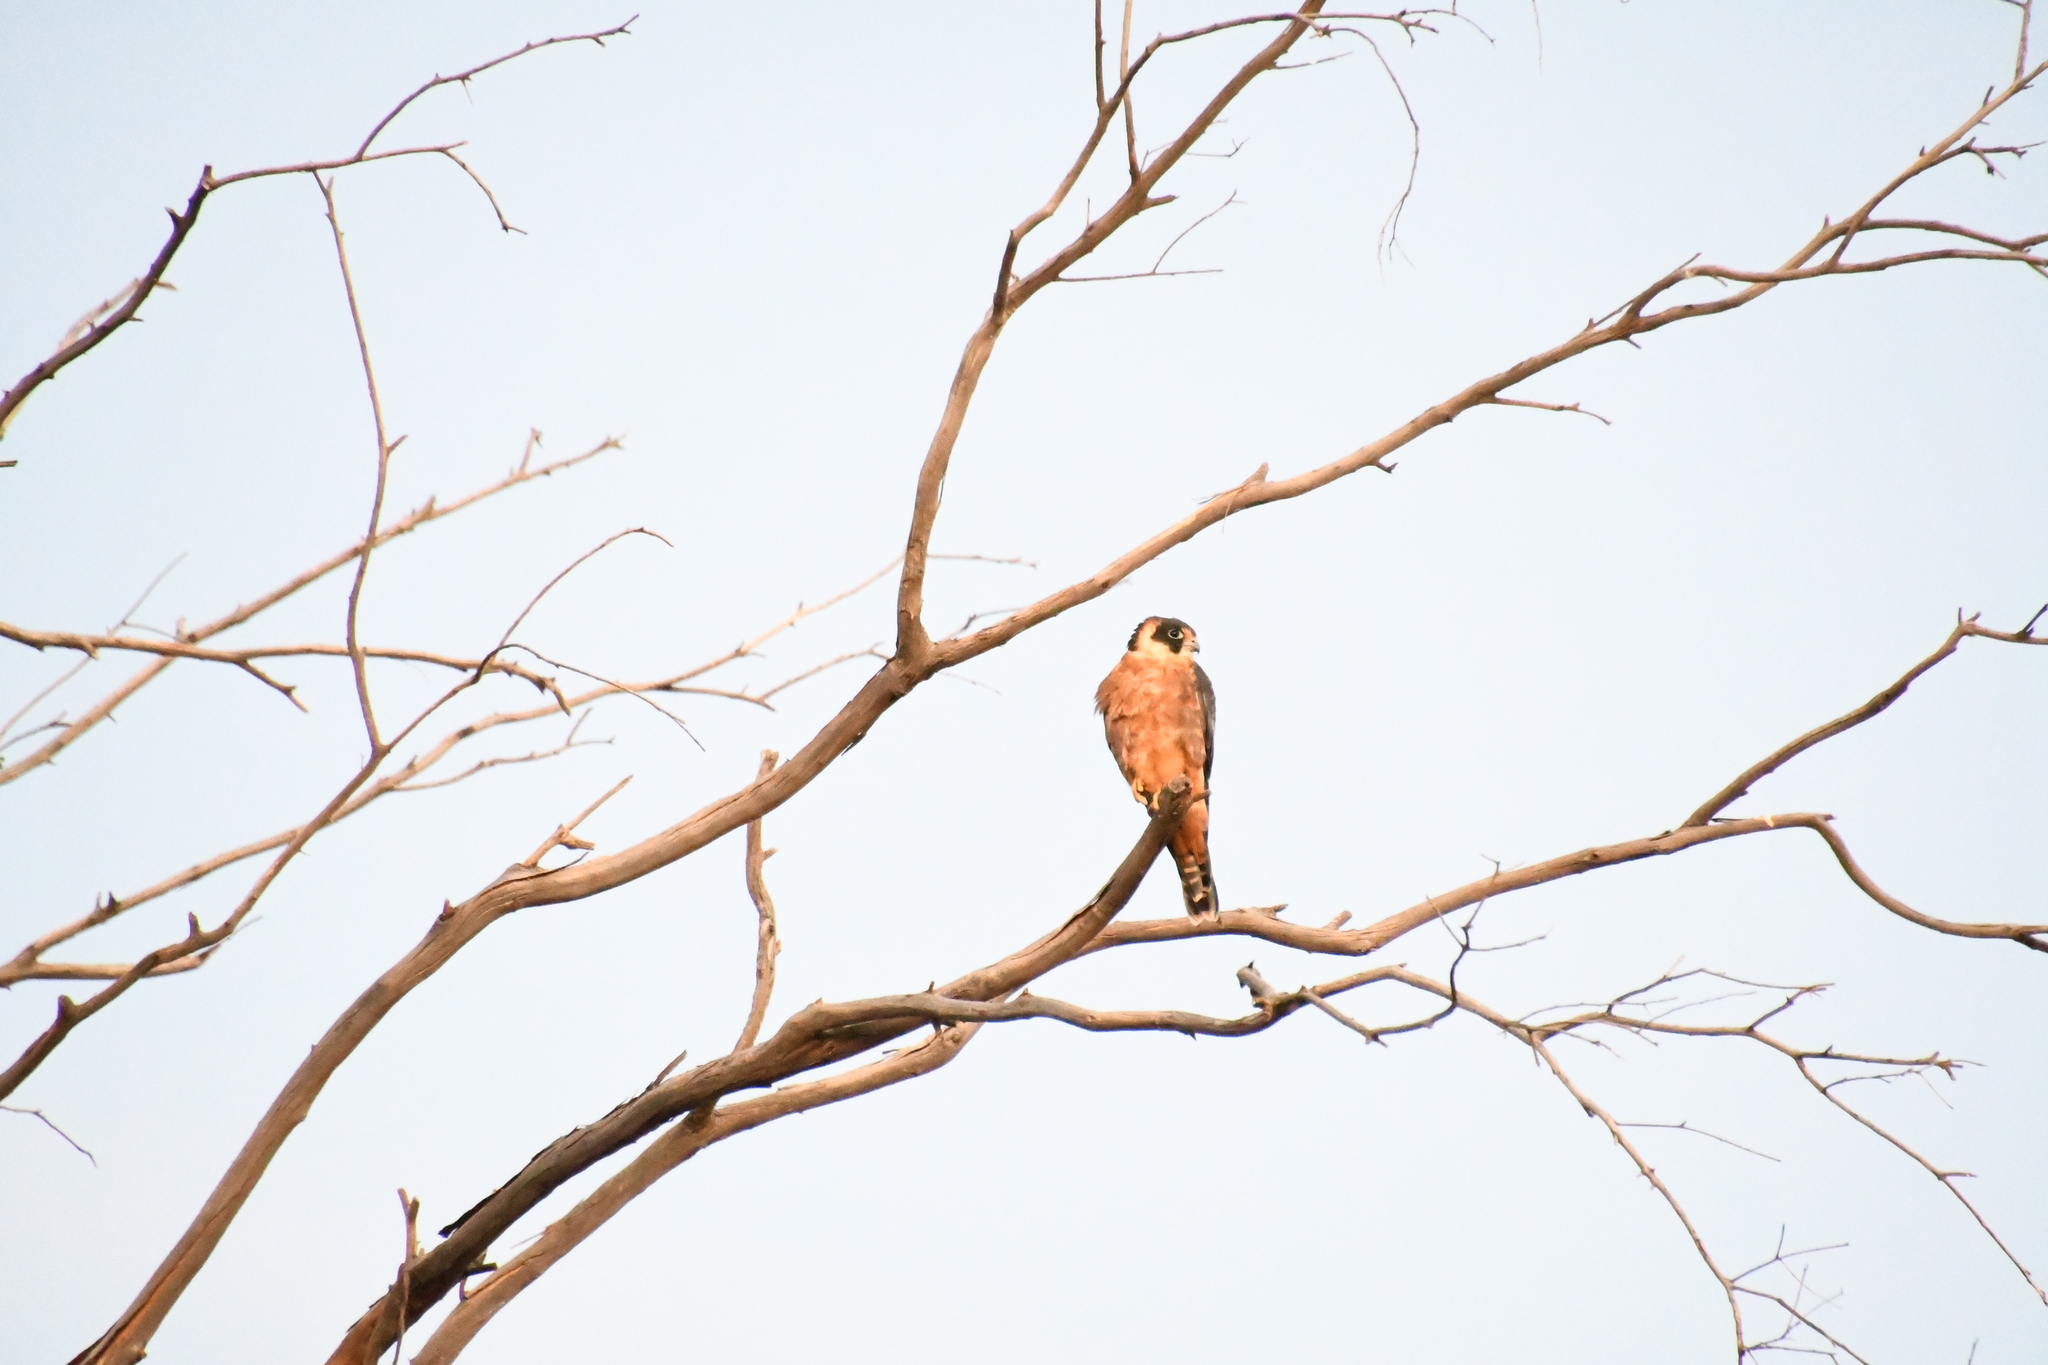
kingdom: Animalia
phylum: Chordata
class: Aves
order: Falconiformes
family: Falconidae
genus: Falco
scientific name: Falco longipennis
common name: Australian hobby
